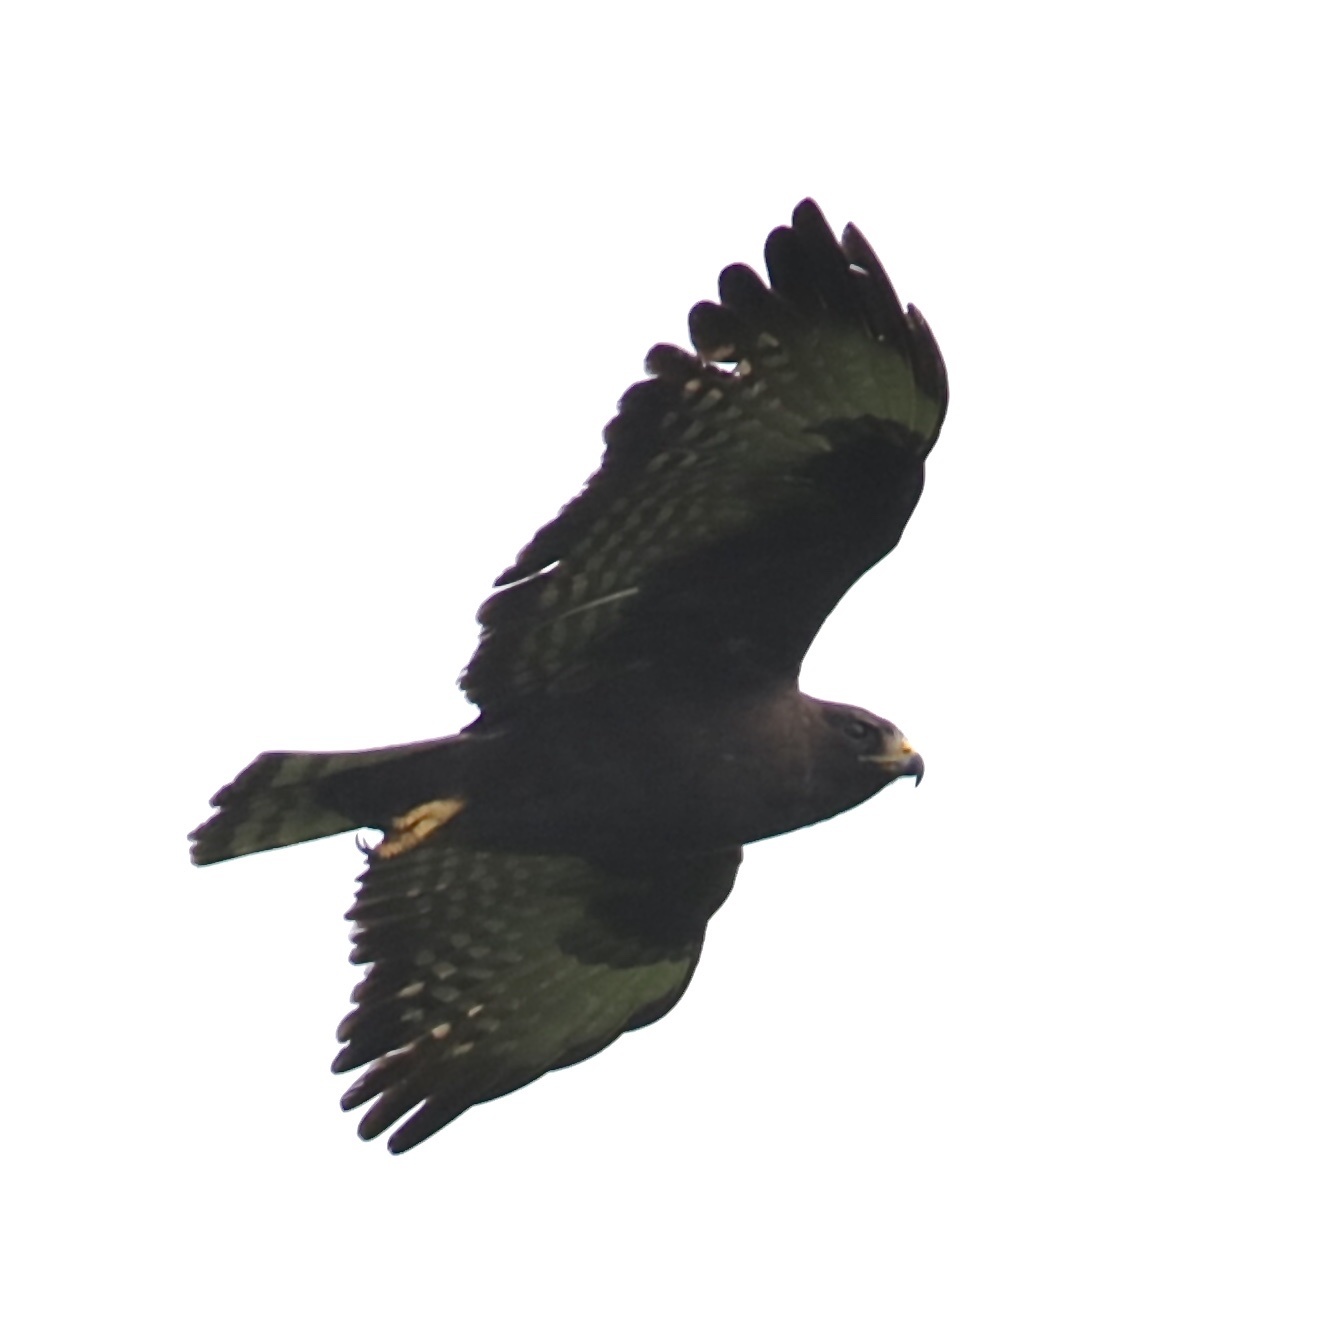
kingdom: Animalia
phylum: Chordata
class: Aves
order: Accipitriformes
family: Accipitridae
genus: Buteo
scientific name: Buteo brachyurus
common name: Short-tailed hawk
